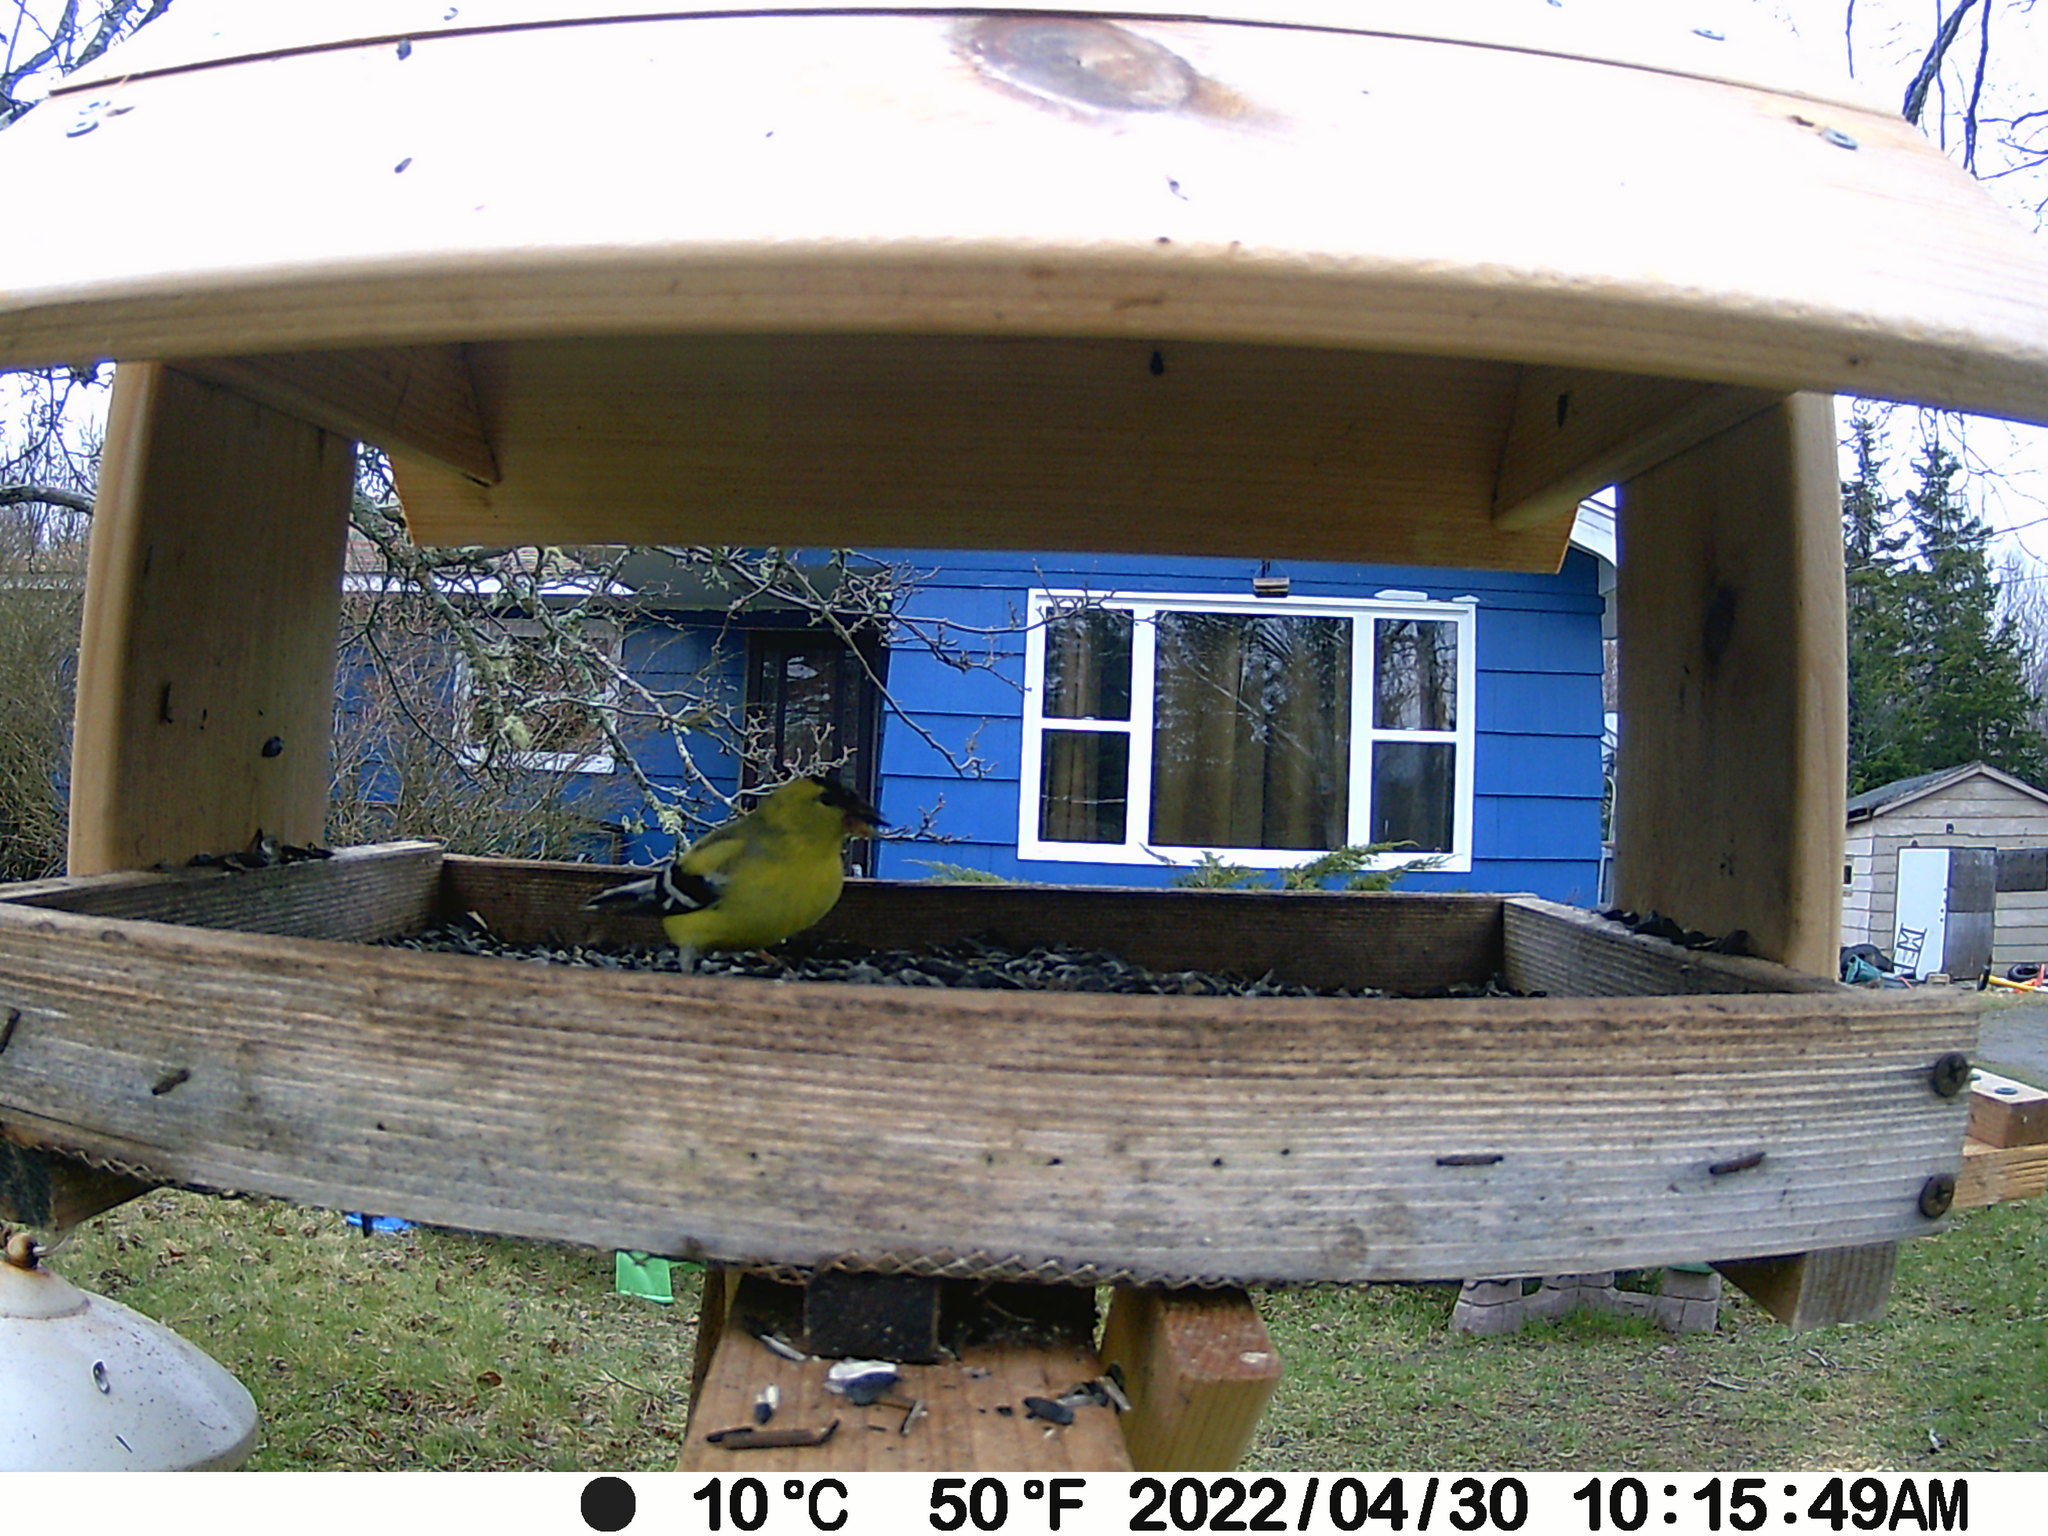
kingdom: Animalia
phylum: Chordata
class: Aves
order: Passeriformes
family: Fringillidae
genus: Spinus
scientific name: Spinus tristis
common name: American goldfinch
